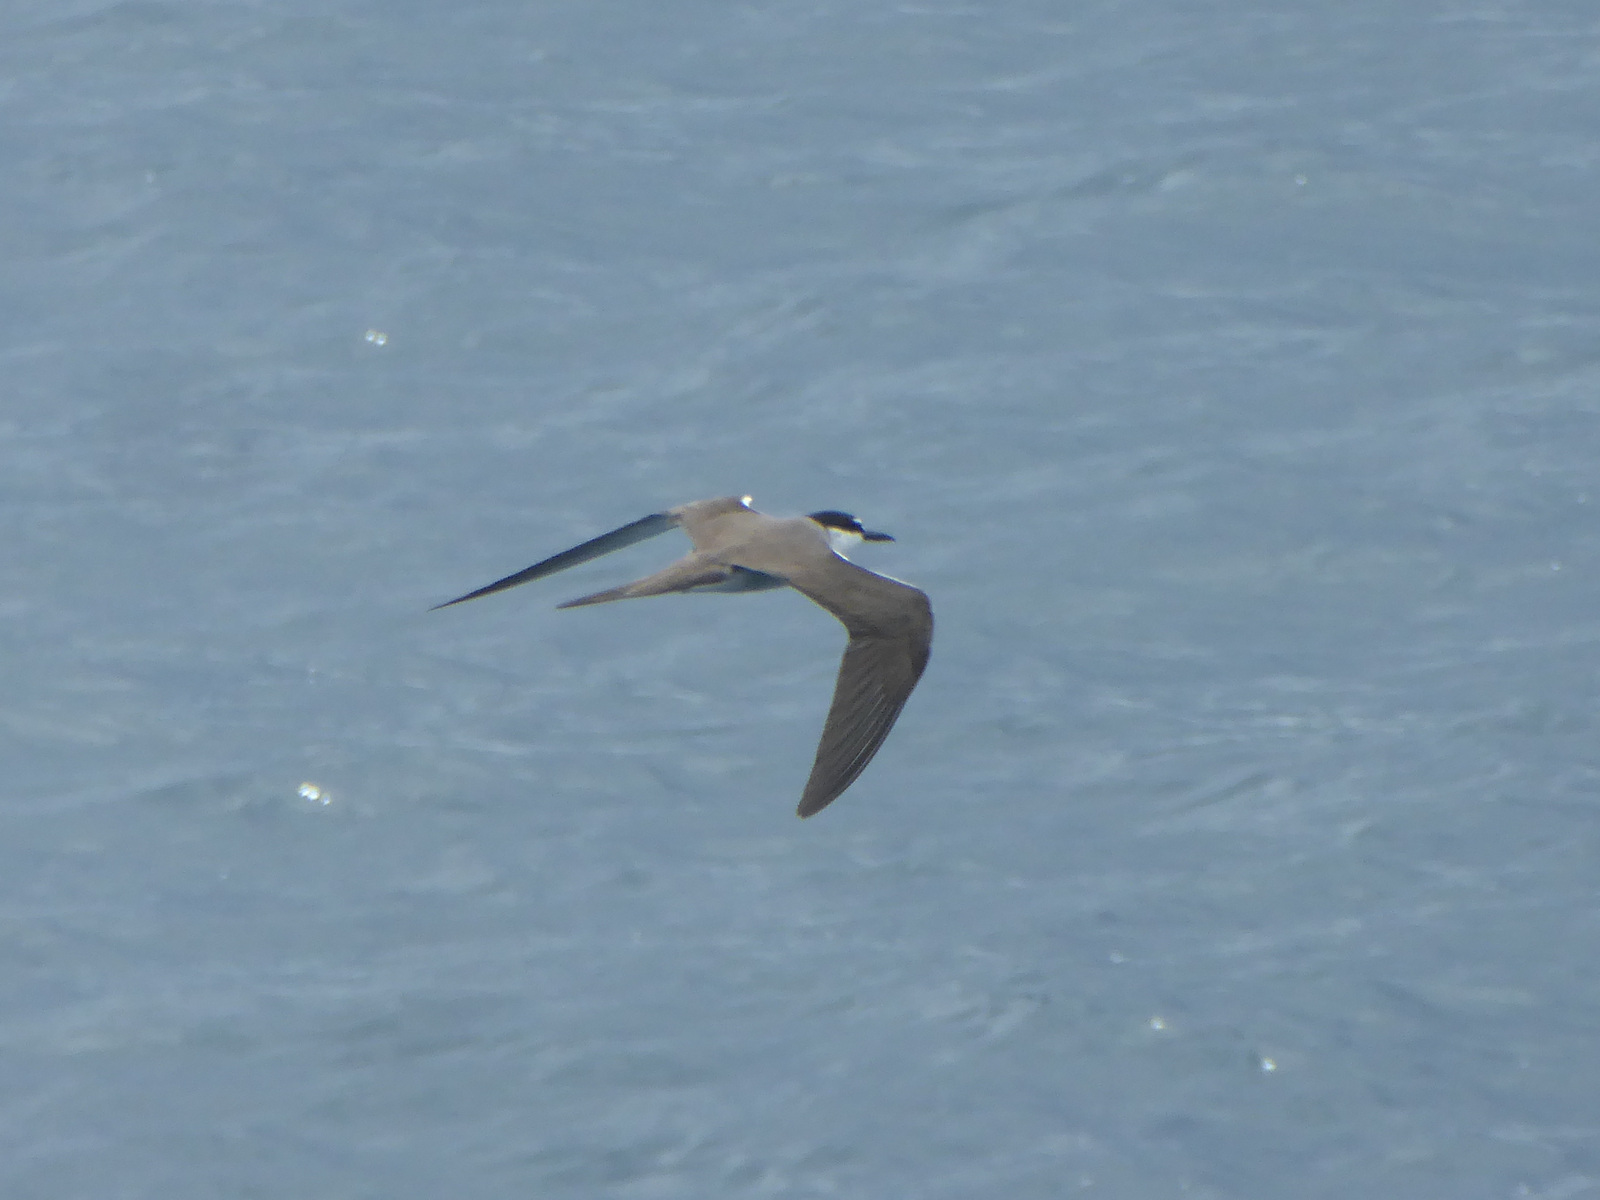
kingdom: Animalia
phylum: Chordata
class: Aves
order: Charadriiformes
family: Laridae
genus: Onychoprion
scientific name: Onychoprion anaethetus
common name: Bridled tern
